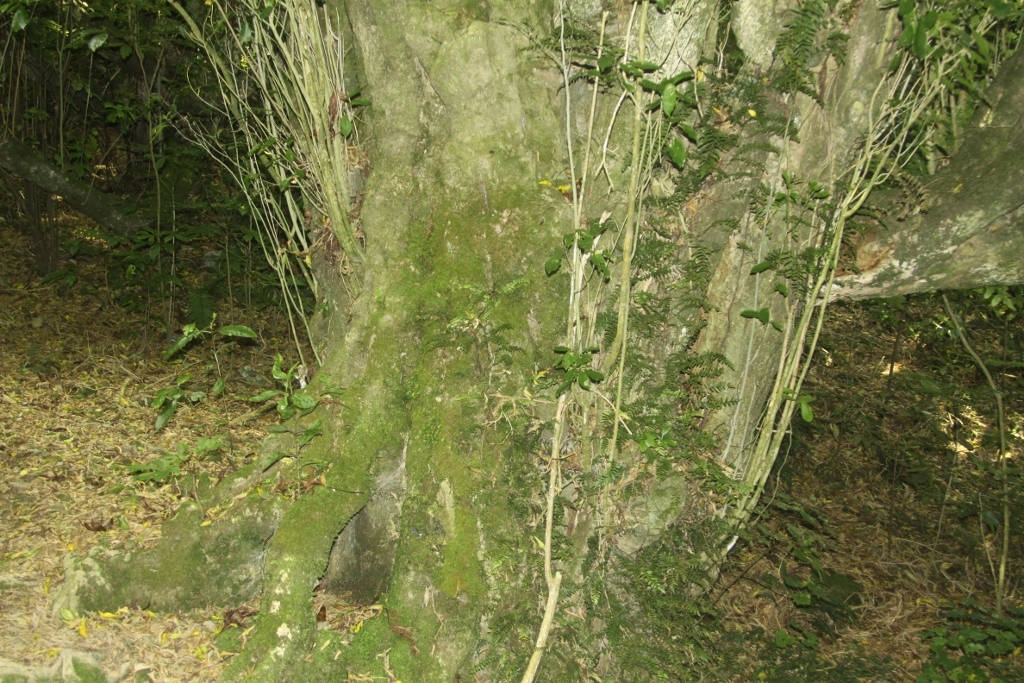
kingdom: Plantae
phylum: Tracheophyta
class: Magnoliopsida
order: Malpighiales
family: Violaceae
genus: Melicytus
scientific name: Melicytus ramiflorus
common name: Mahoe
